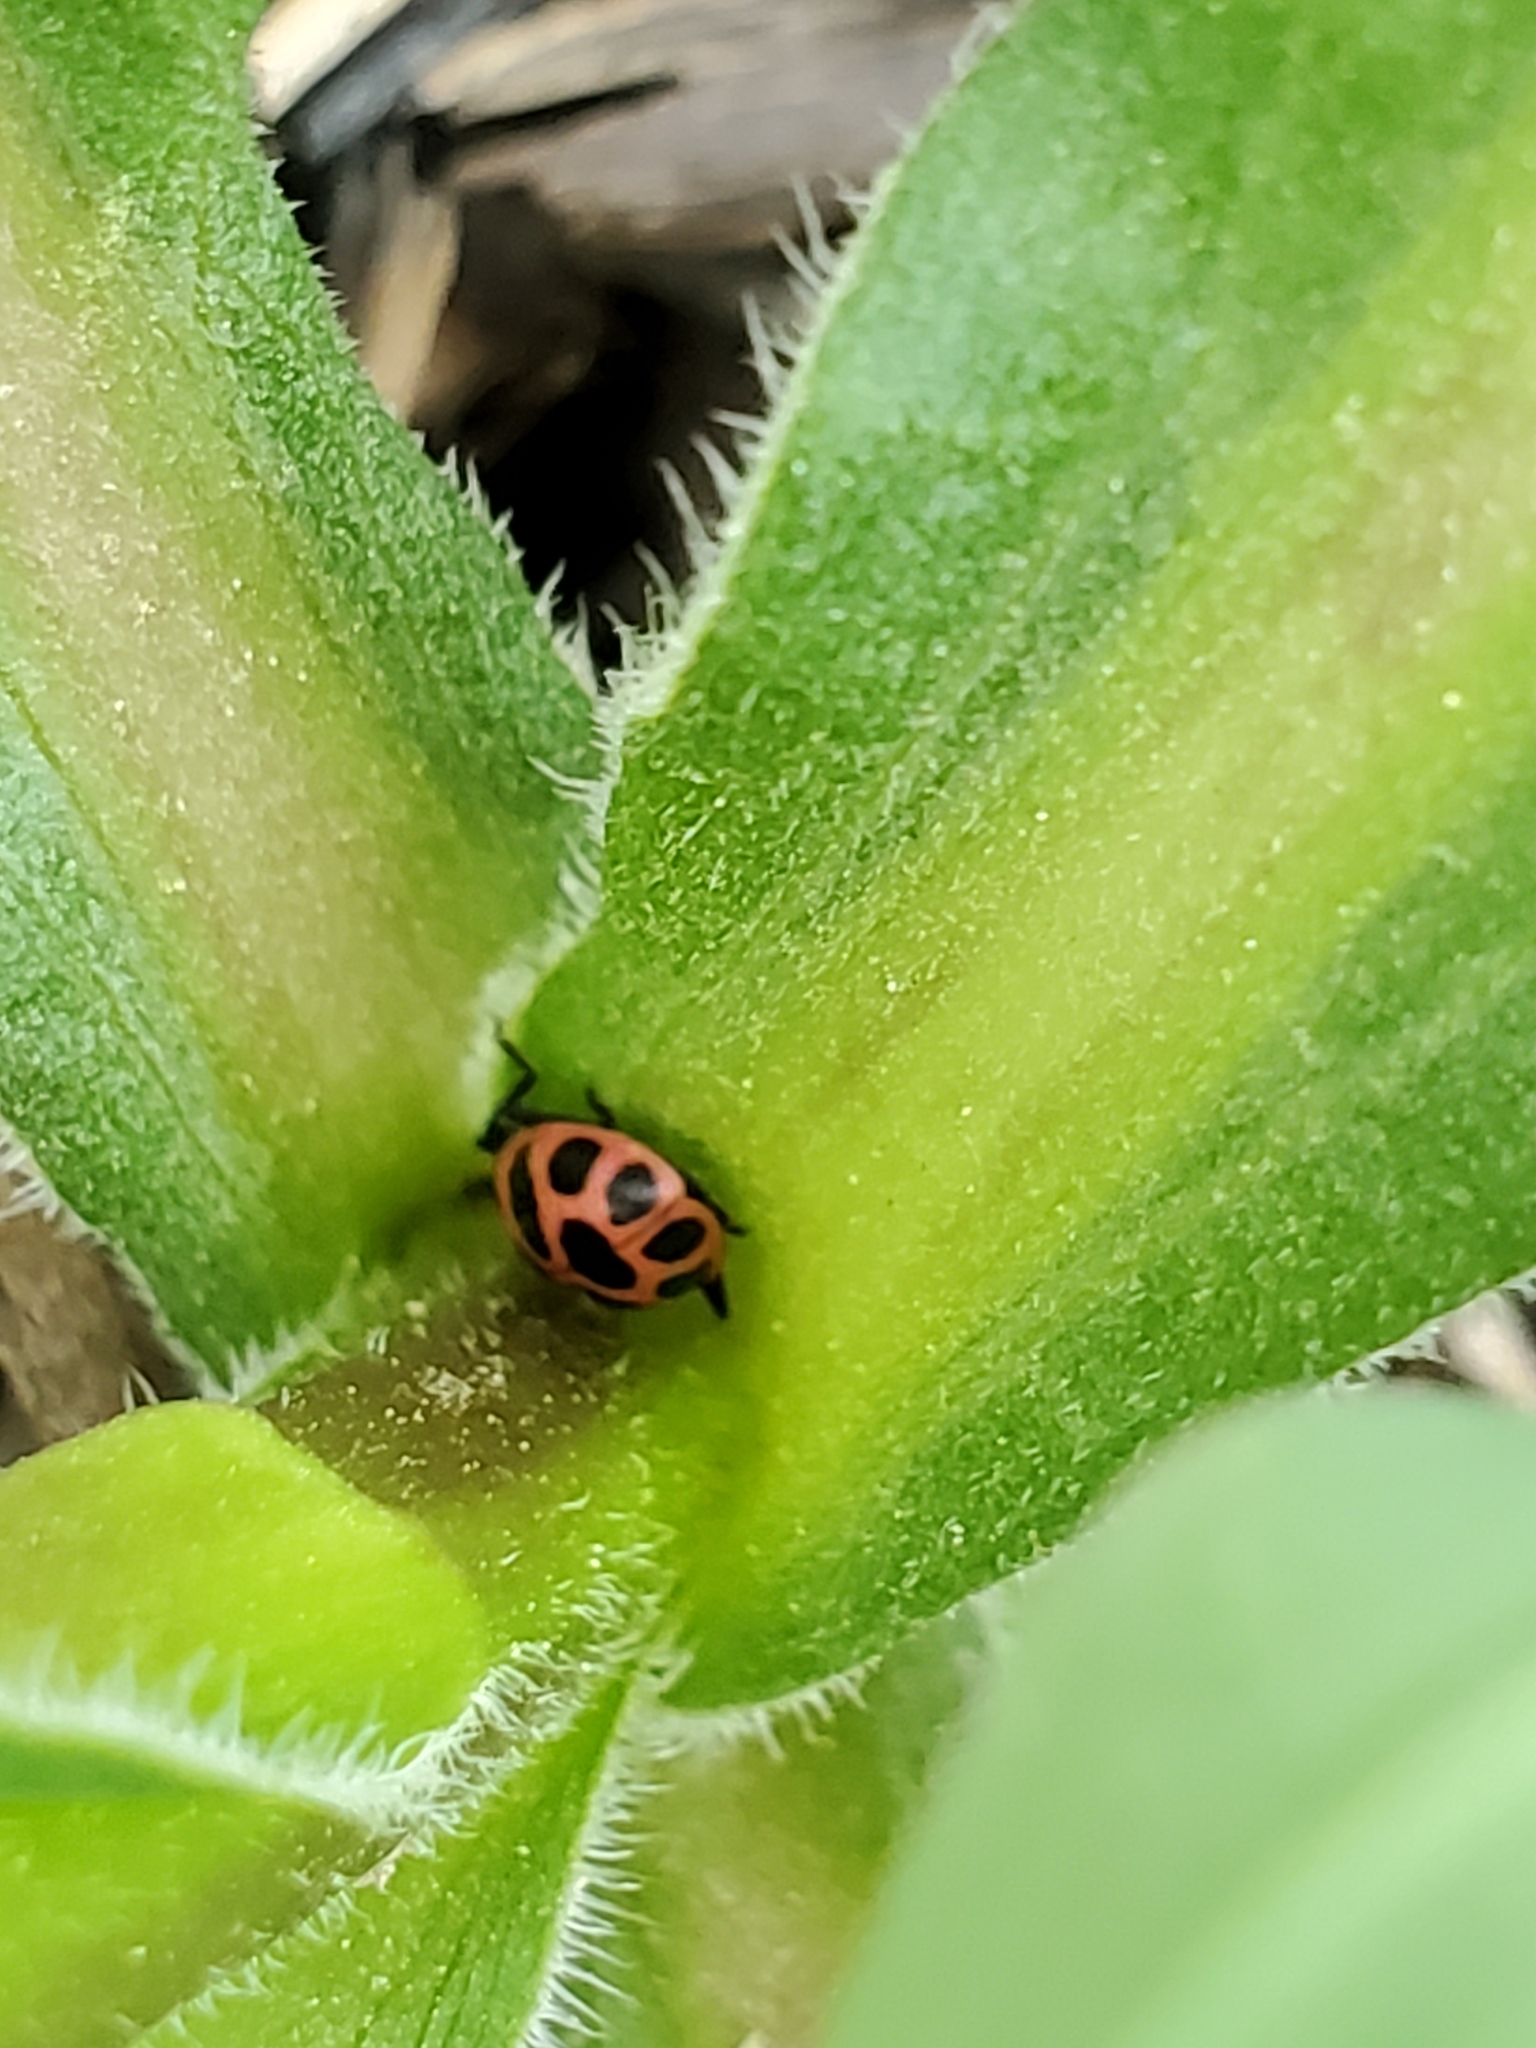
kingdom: Animalia
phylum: Arthropoda
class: Insecta
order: Coleoptera
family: Coccinellidae
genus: Coleomegilla
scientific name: Coleomegilla maculata
